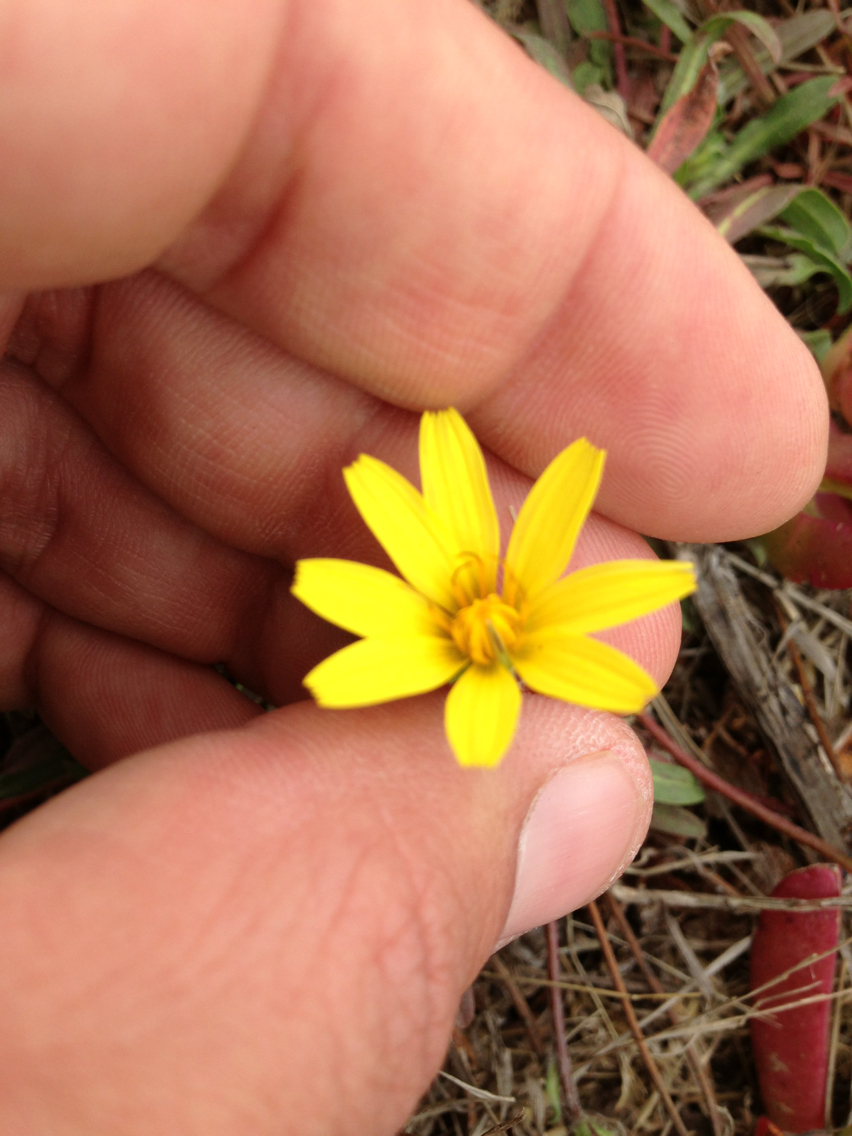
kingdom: Plantae
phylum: Tracheophyta
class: Magnoliopsida
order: Asterales
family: Asteraceae
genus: Agoseris
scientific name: Agoseris apargioides
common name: Point reyes agoseris
